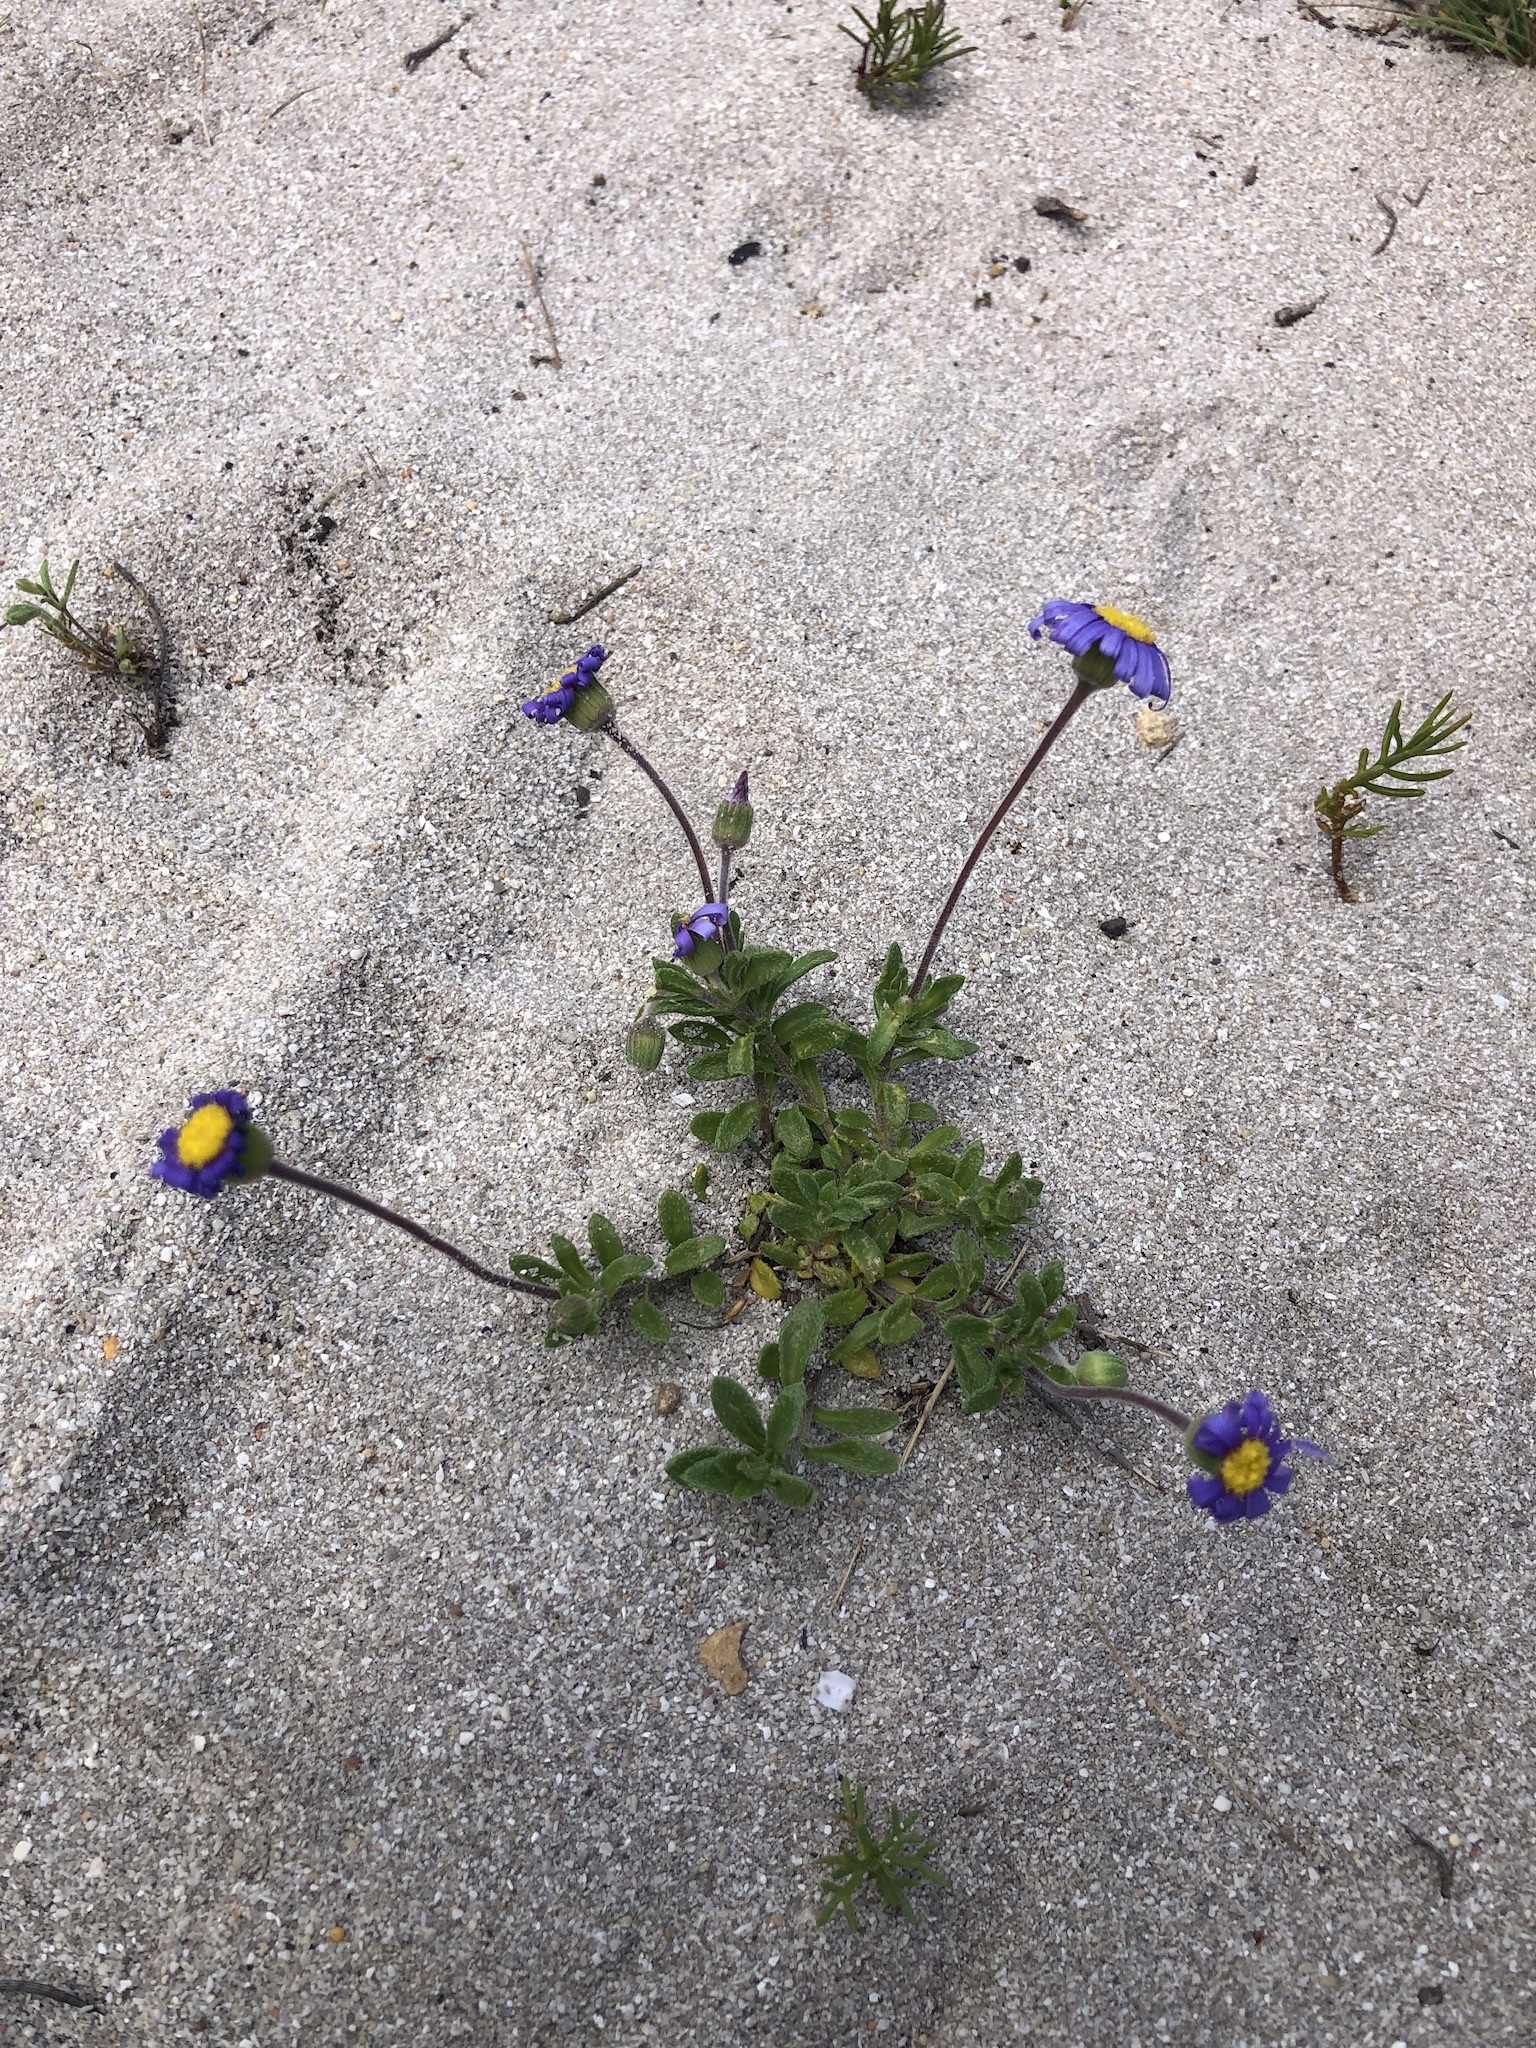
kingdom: Plantae
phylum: Tracheophyta
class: Magnoliopsida
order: Asterales
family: Asteraceae
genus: Felicia
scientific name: Felicia amoena
